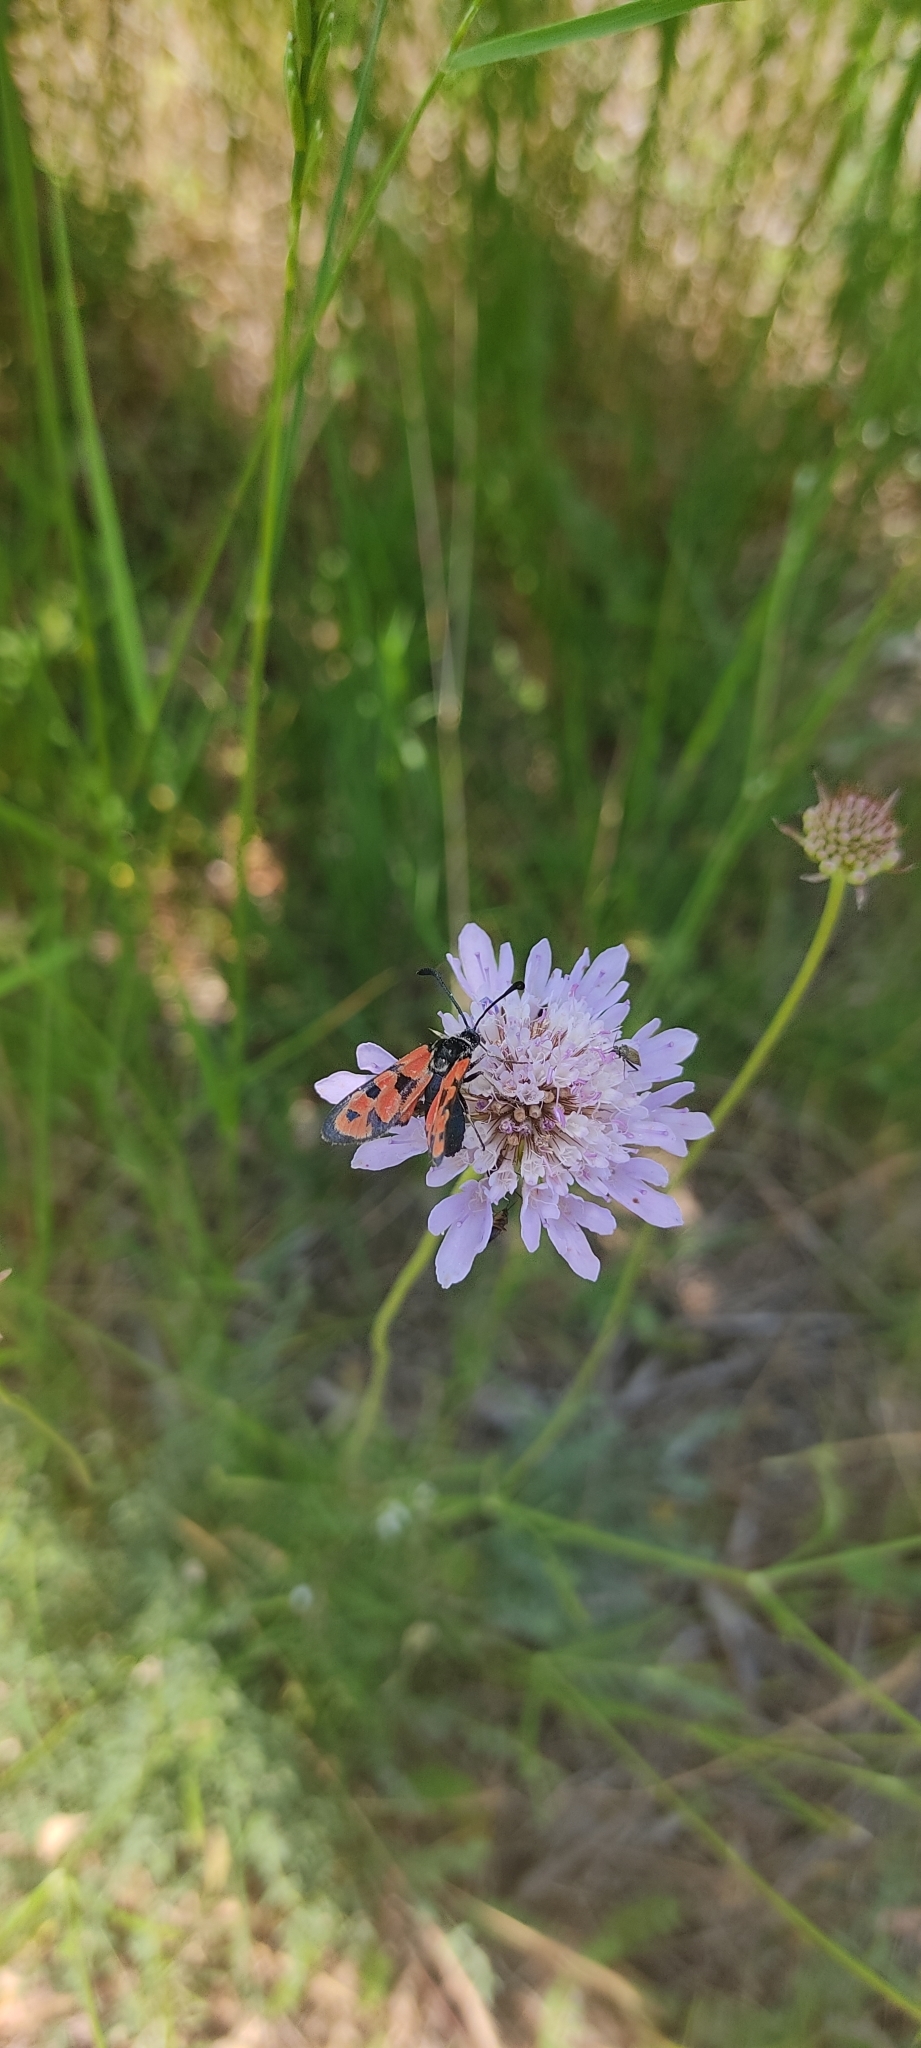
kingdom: Animalia
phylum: Arthropoda
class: Insecta
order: Lepidoptera
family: Zygaenidae
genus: Zygaena
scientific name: Zygaena carniolica
